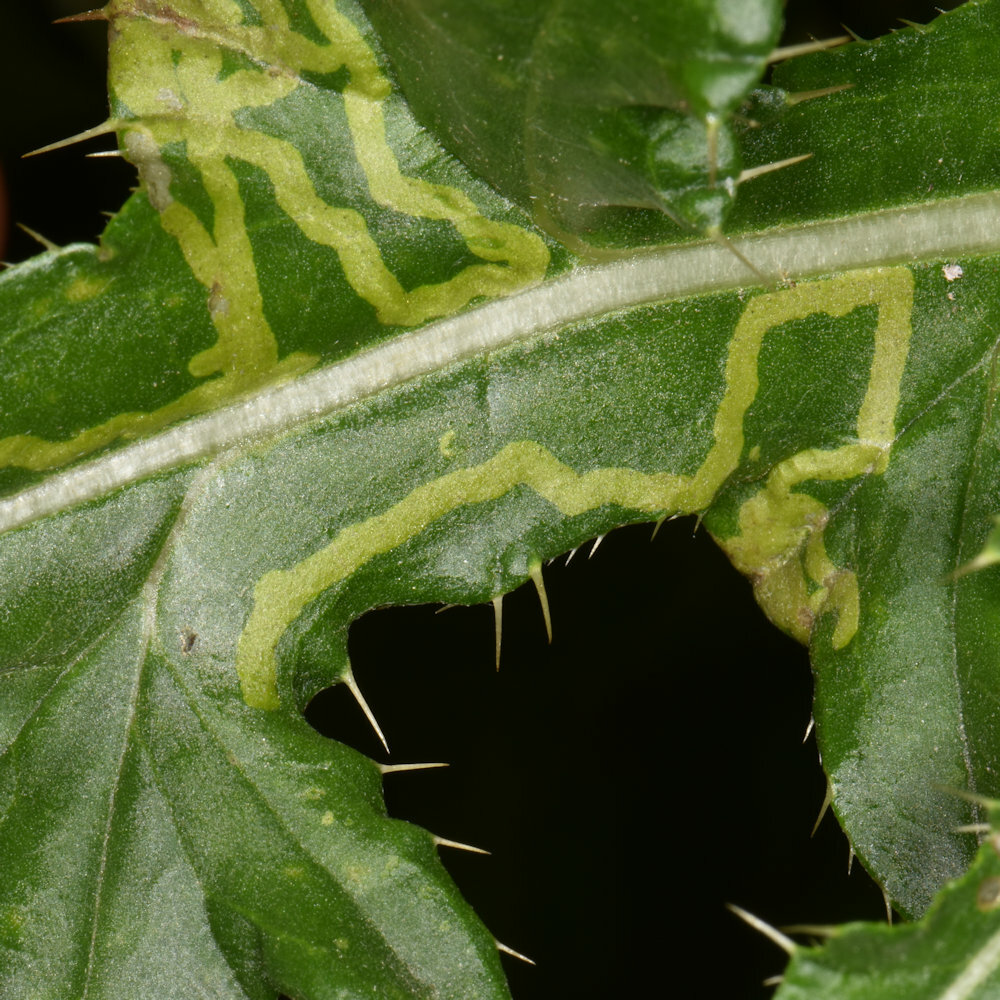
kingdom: Animalia
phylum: Arthropoda
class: Insecta
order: Diptera
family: Agromyzidae
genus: Phytomyza
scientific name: Phytomyza spinaciae
